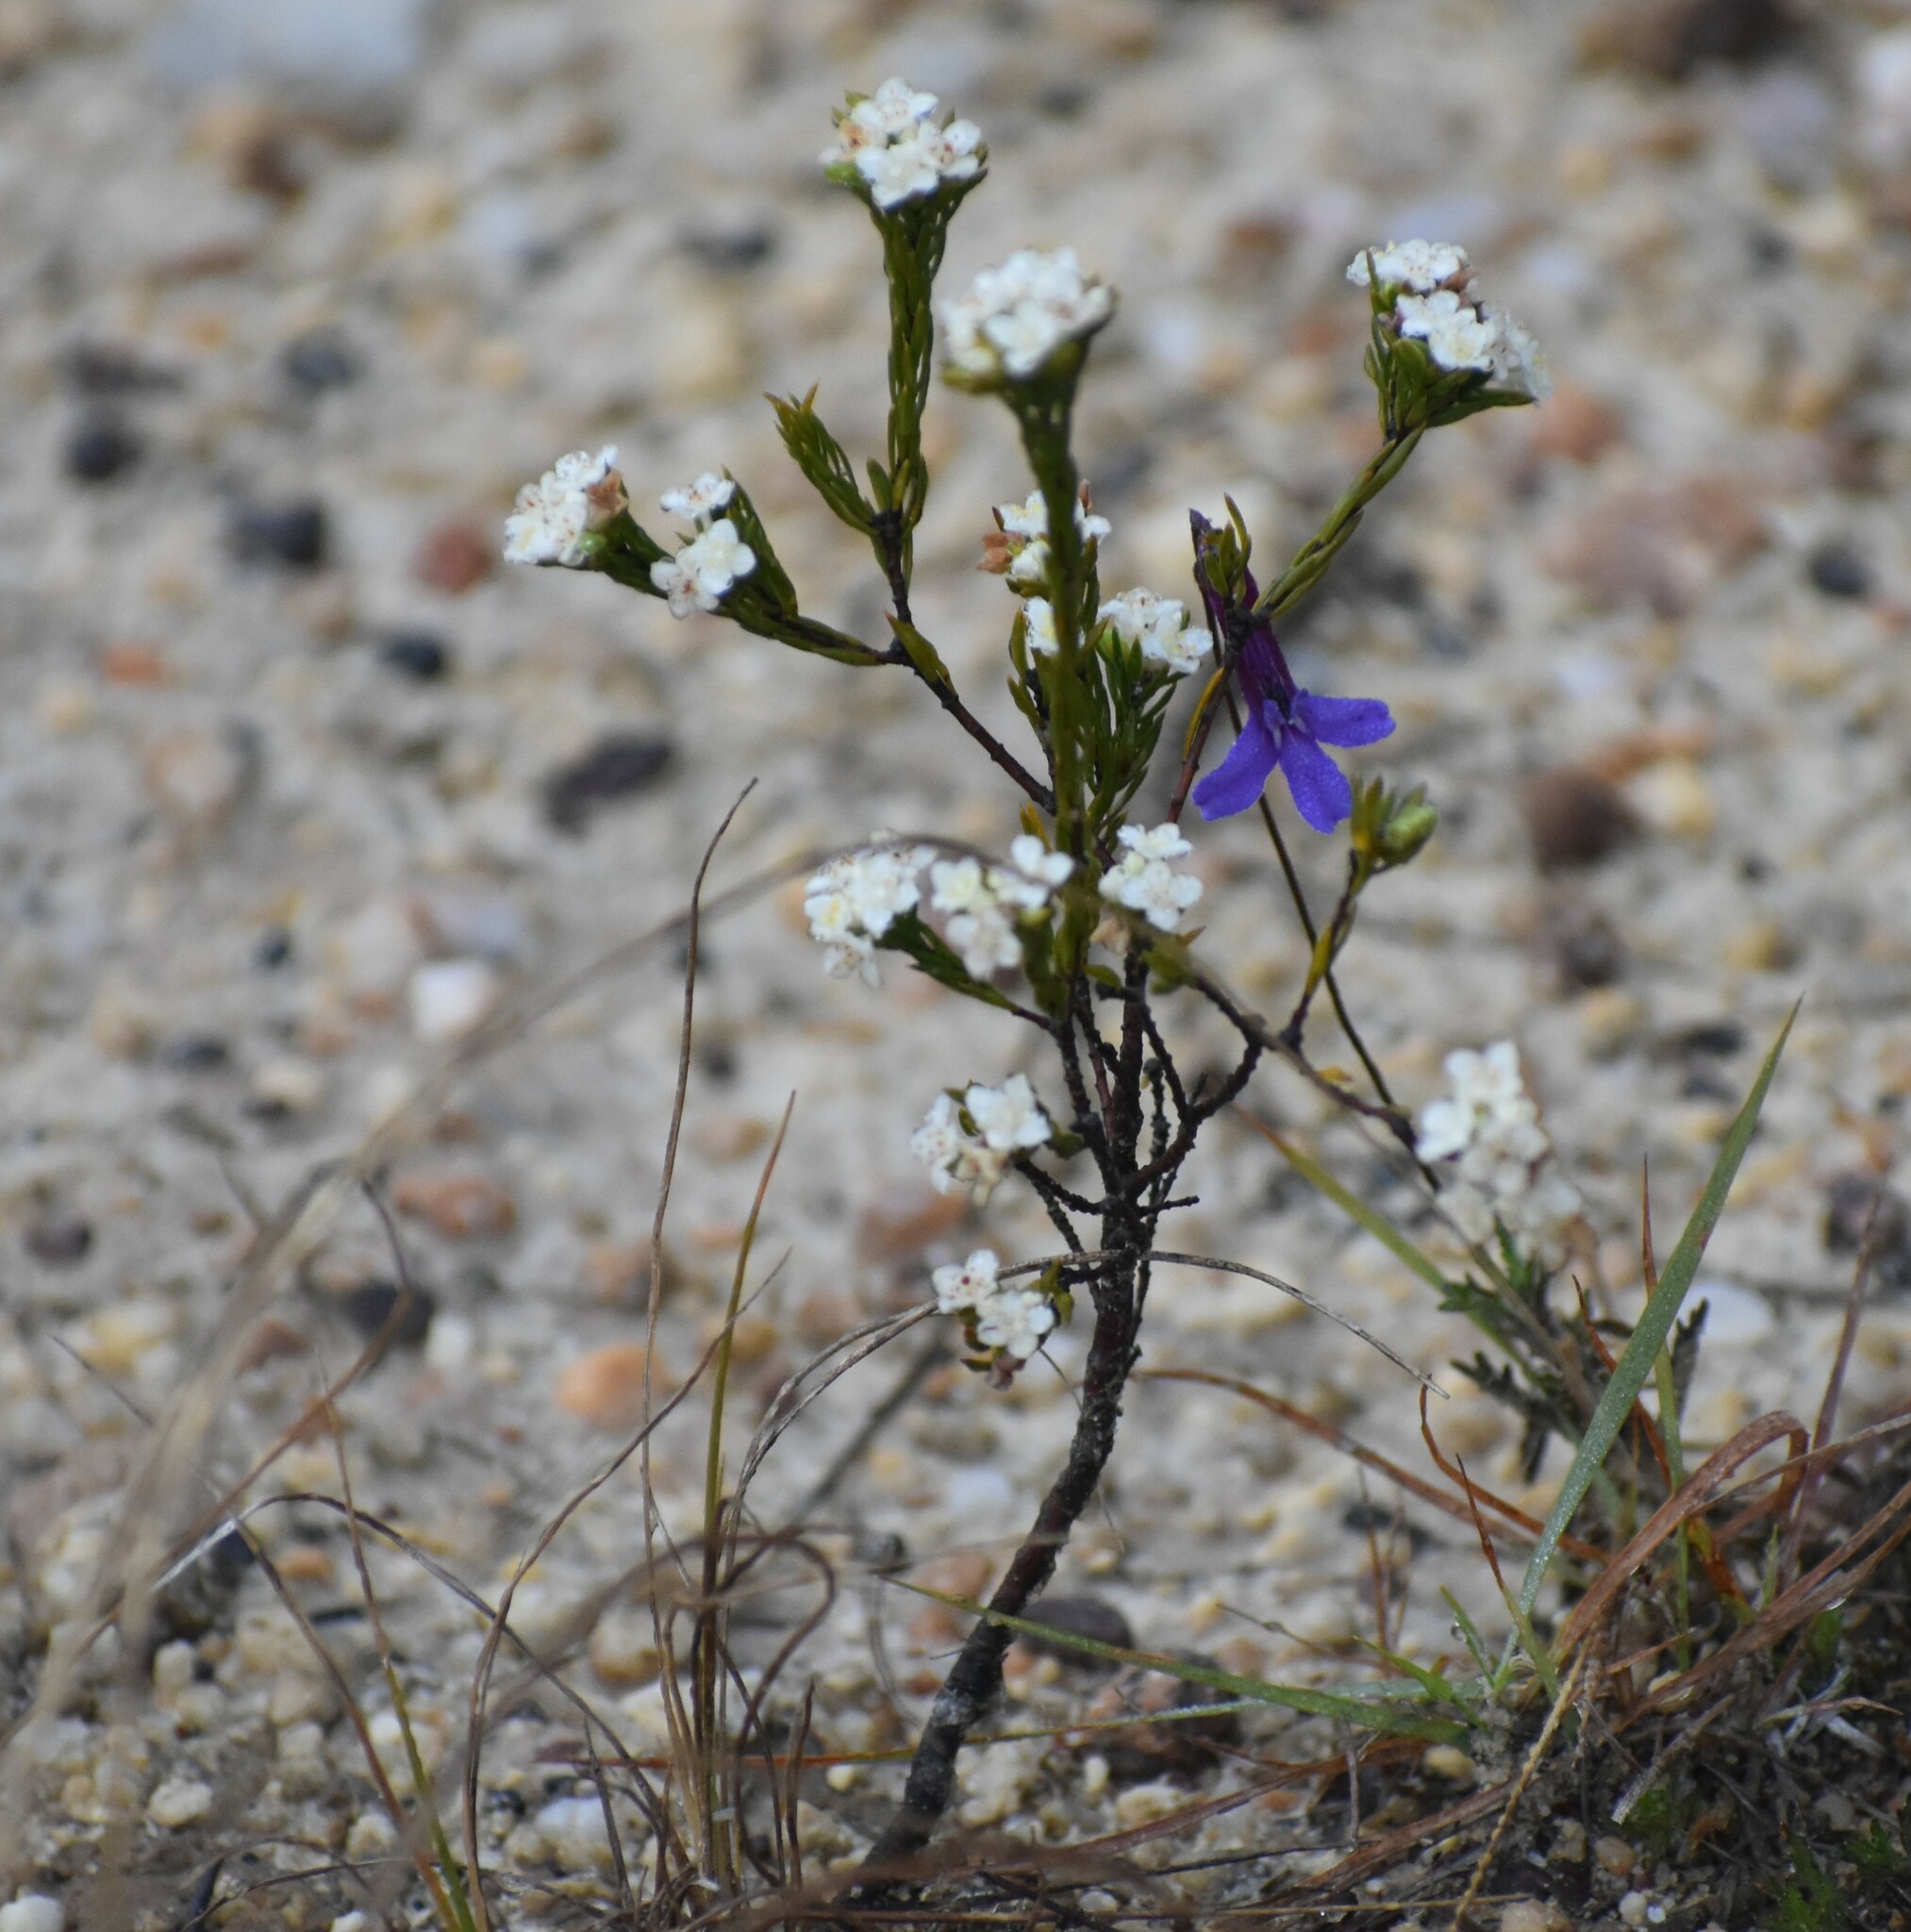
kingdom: Plantae
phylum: Tracheophyta
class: Magnoliopsida
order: Malvales
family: Thymelaeaceae
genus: Lachnaea
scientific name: Lachnaea diosmoides
